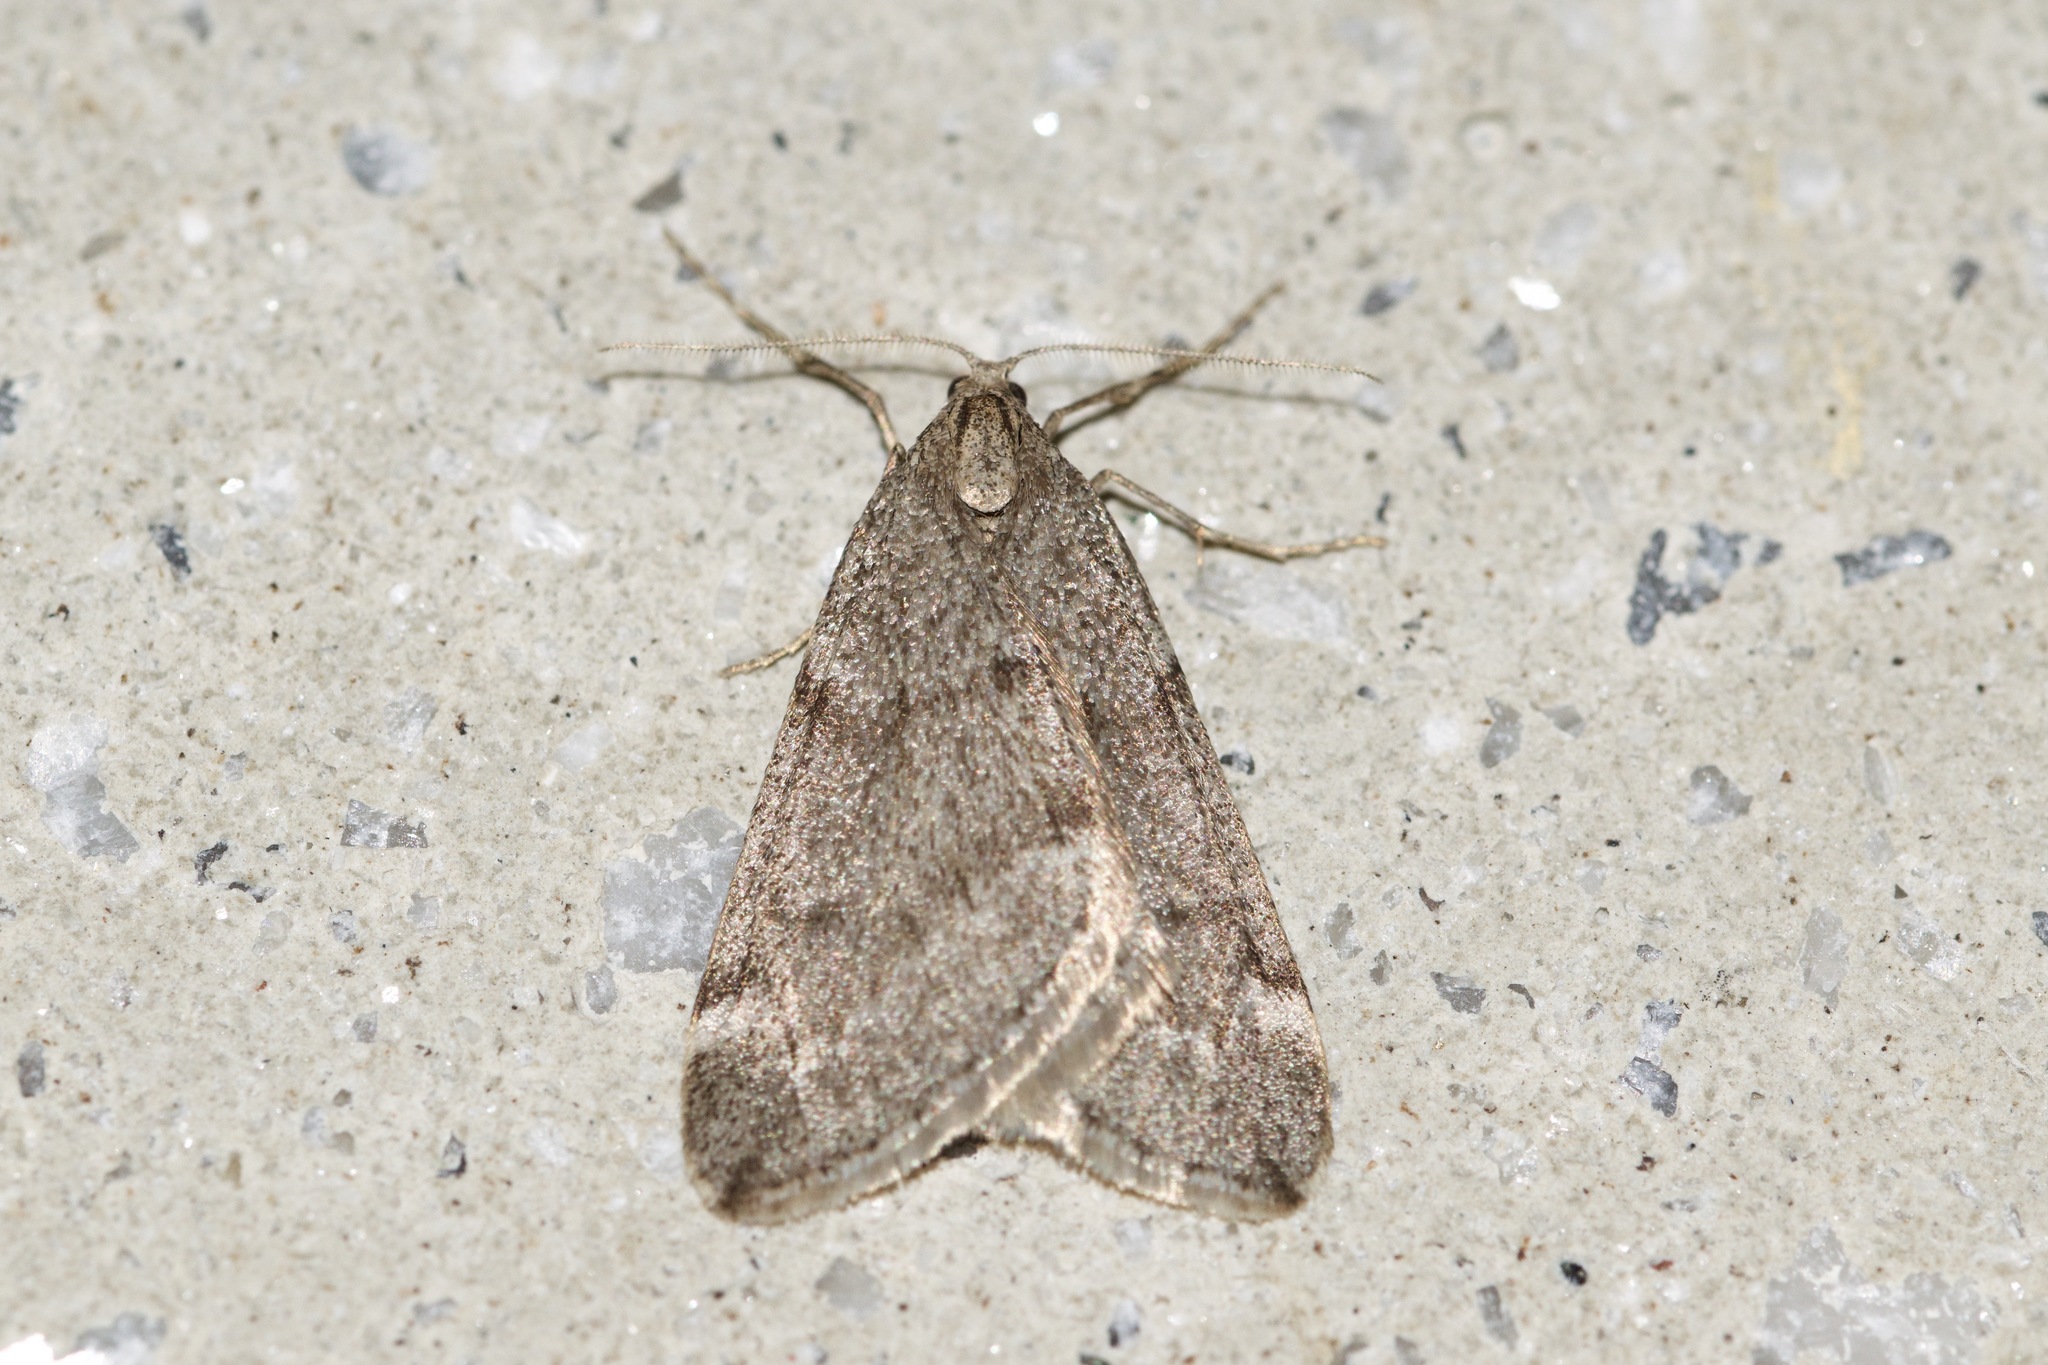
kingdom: Animalia
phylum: Arthropoda
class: Insecta
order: Lepidoptera
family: Geometridae
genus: Alsophila
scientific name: Alsophila pometaria
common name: Fall cankerworm
